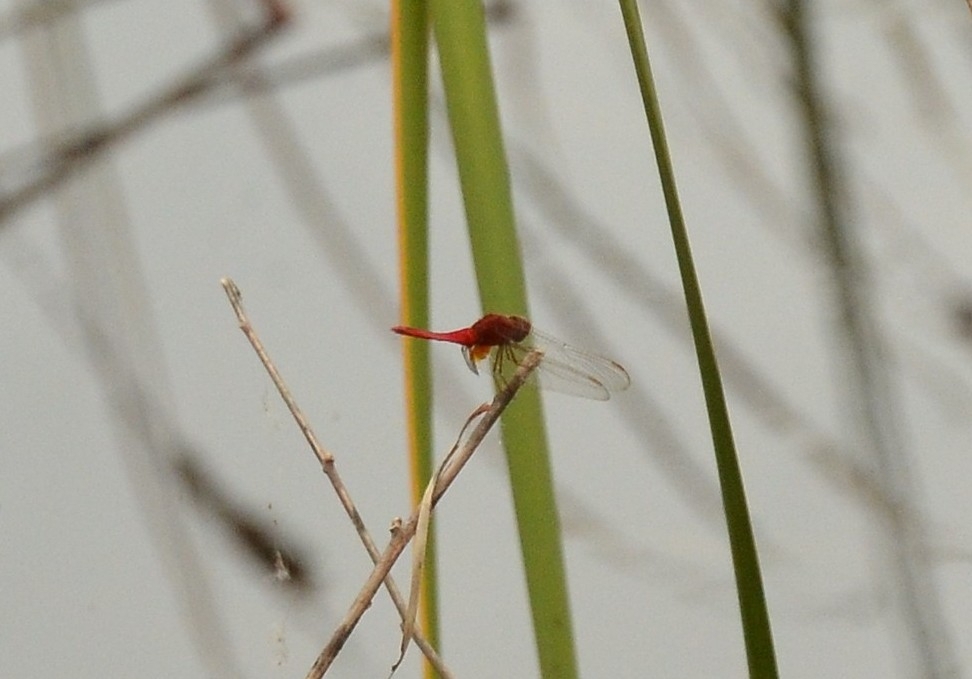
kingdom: Animalia
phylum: Arthropoda
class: Insecta
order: Odonata
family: Libellulidae
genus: Crocothemis
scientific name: Crocothemis servilia
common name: Scarlet skimmer
